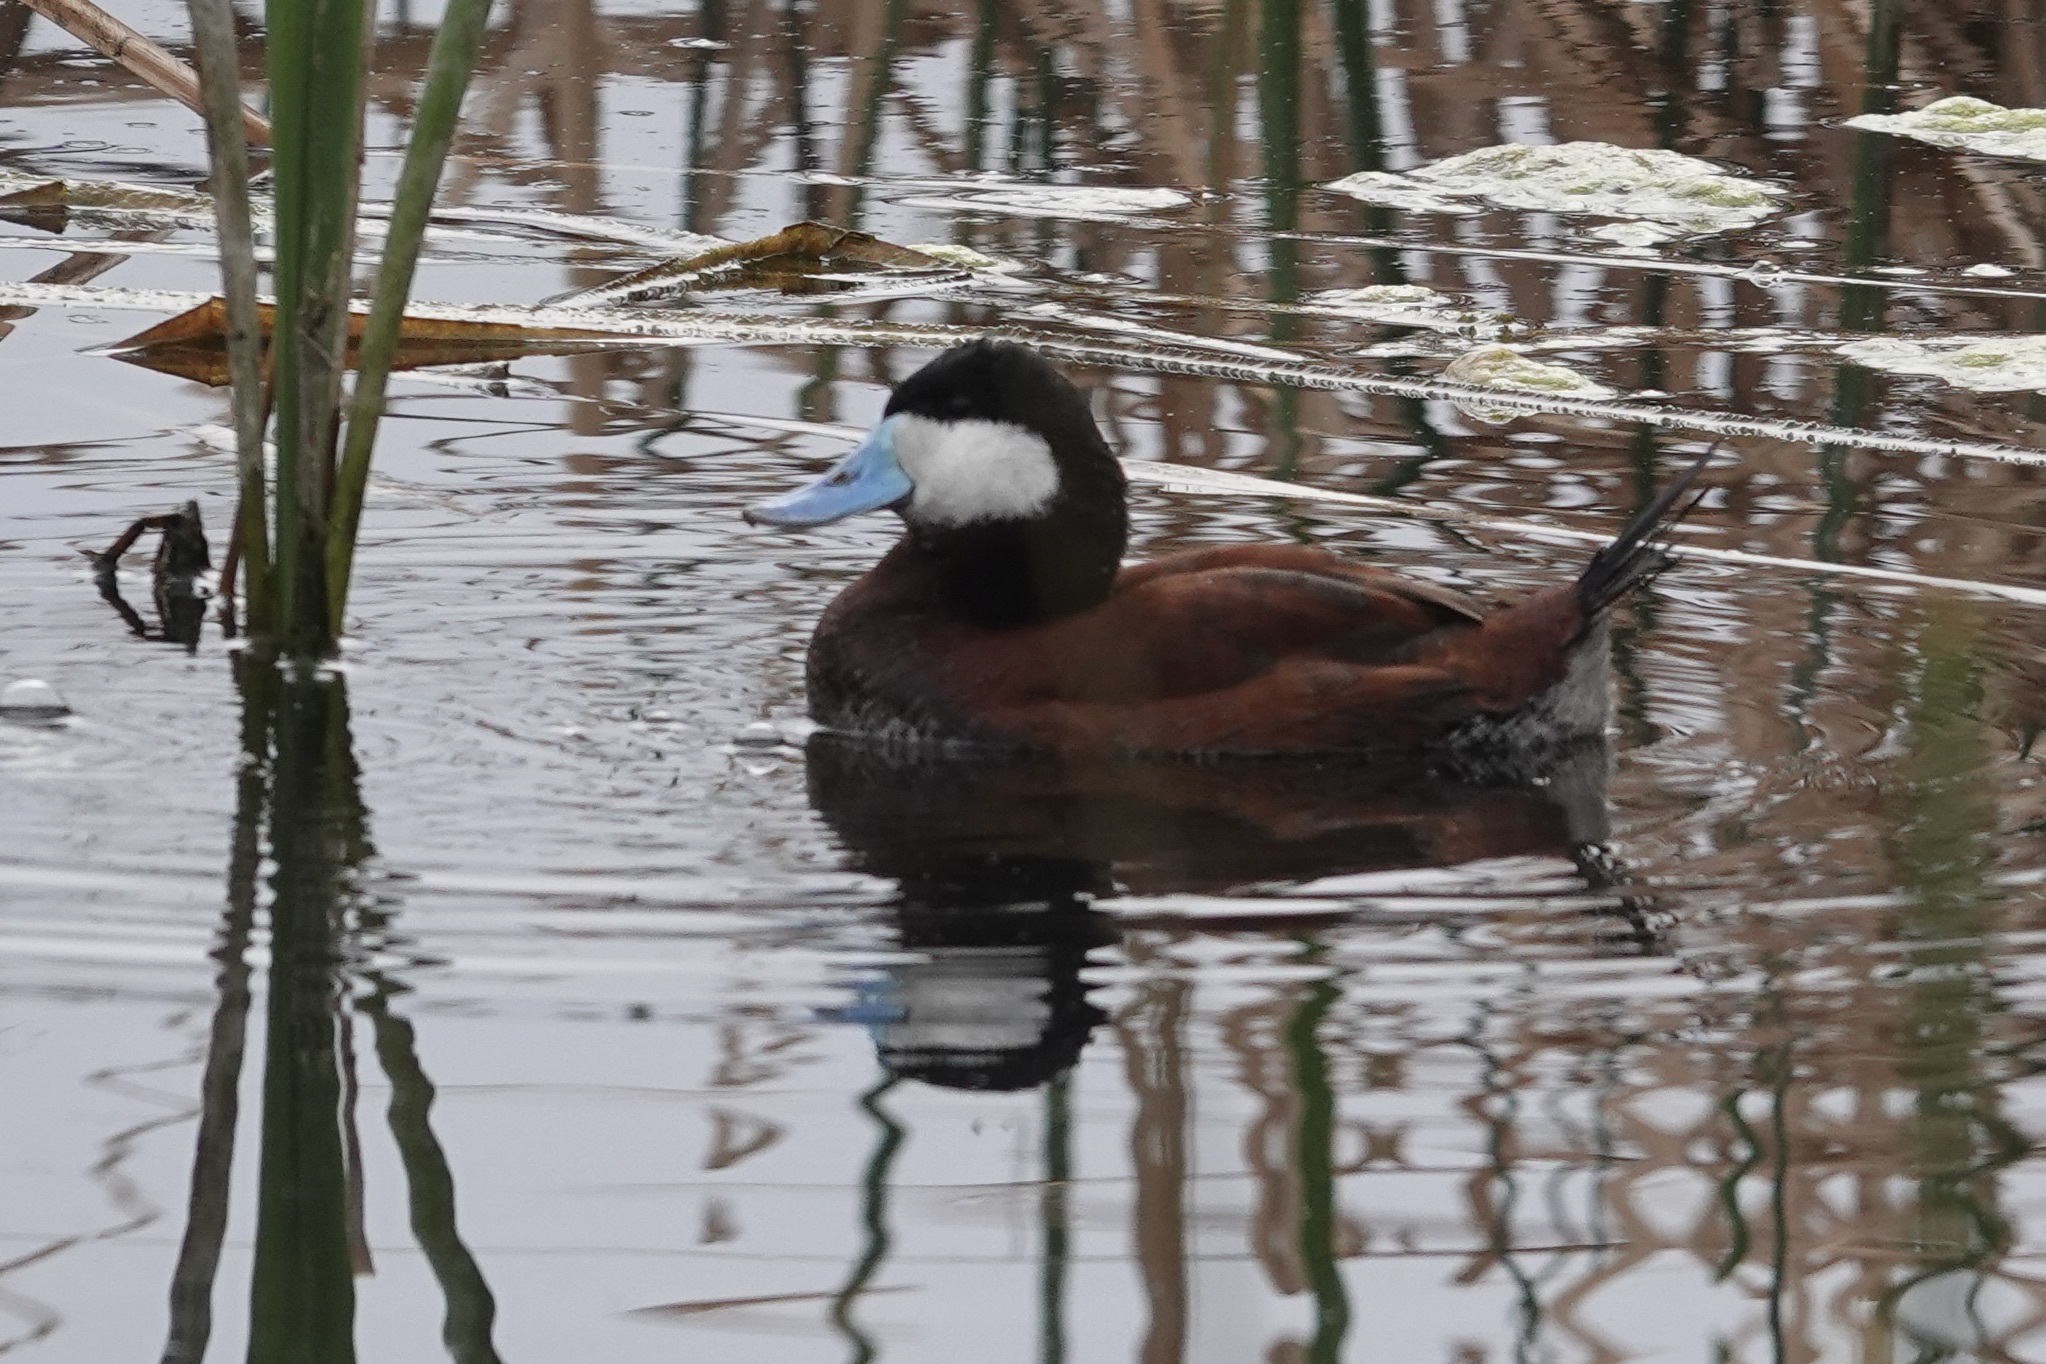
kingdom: Animalia
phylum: Chordata
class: Aves
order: Anseriformes
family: Anatidae
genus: Oxyura
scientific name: Oxyura jamaicensis
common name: Ruddy duck
